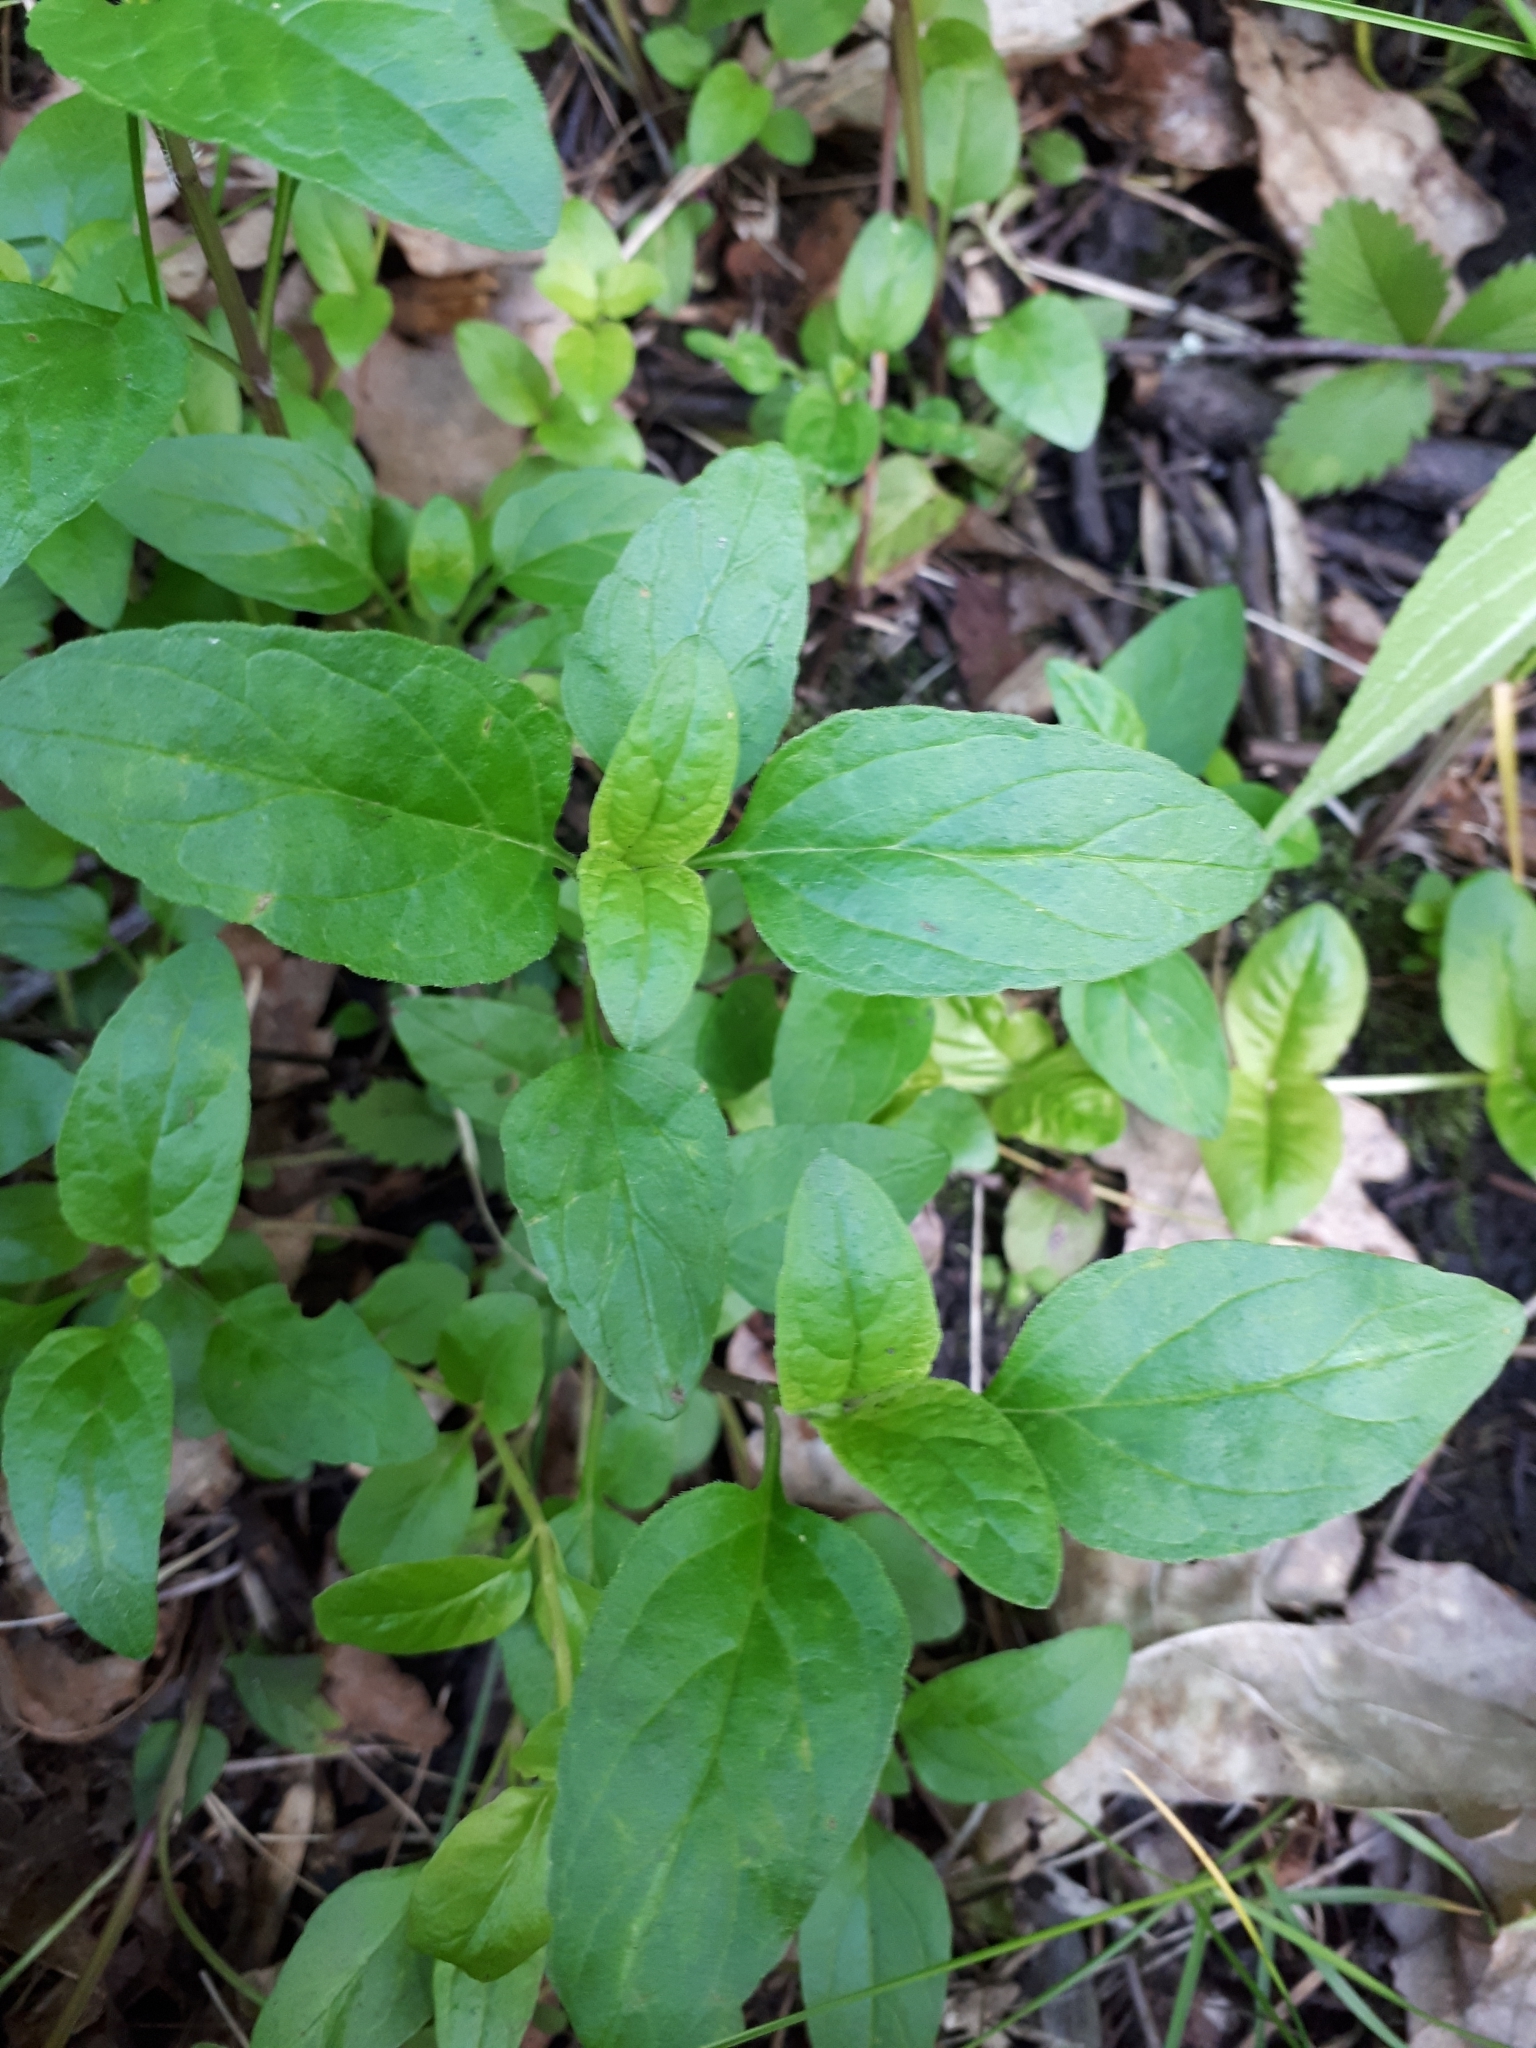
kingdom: Plantae
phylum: Tracheophyta
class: Magnoliopsida
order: Lamiales
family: Lamiaceae
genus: Prunella
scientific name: Prunella vulgaris
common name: Heal-all
